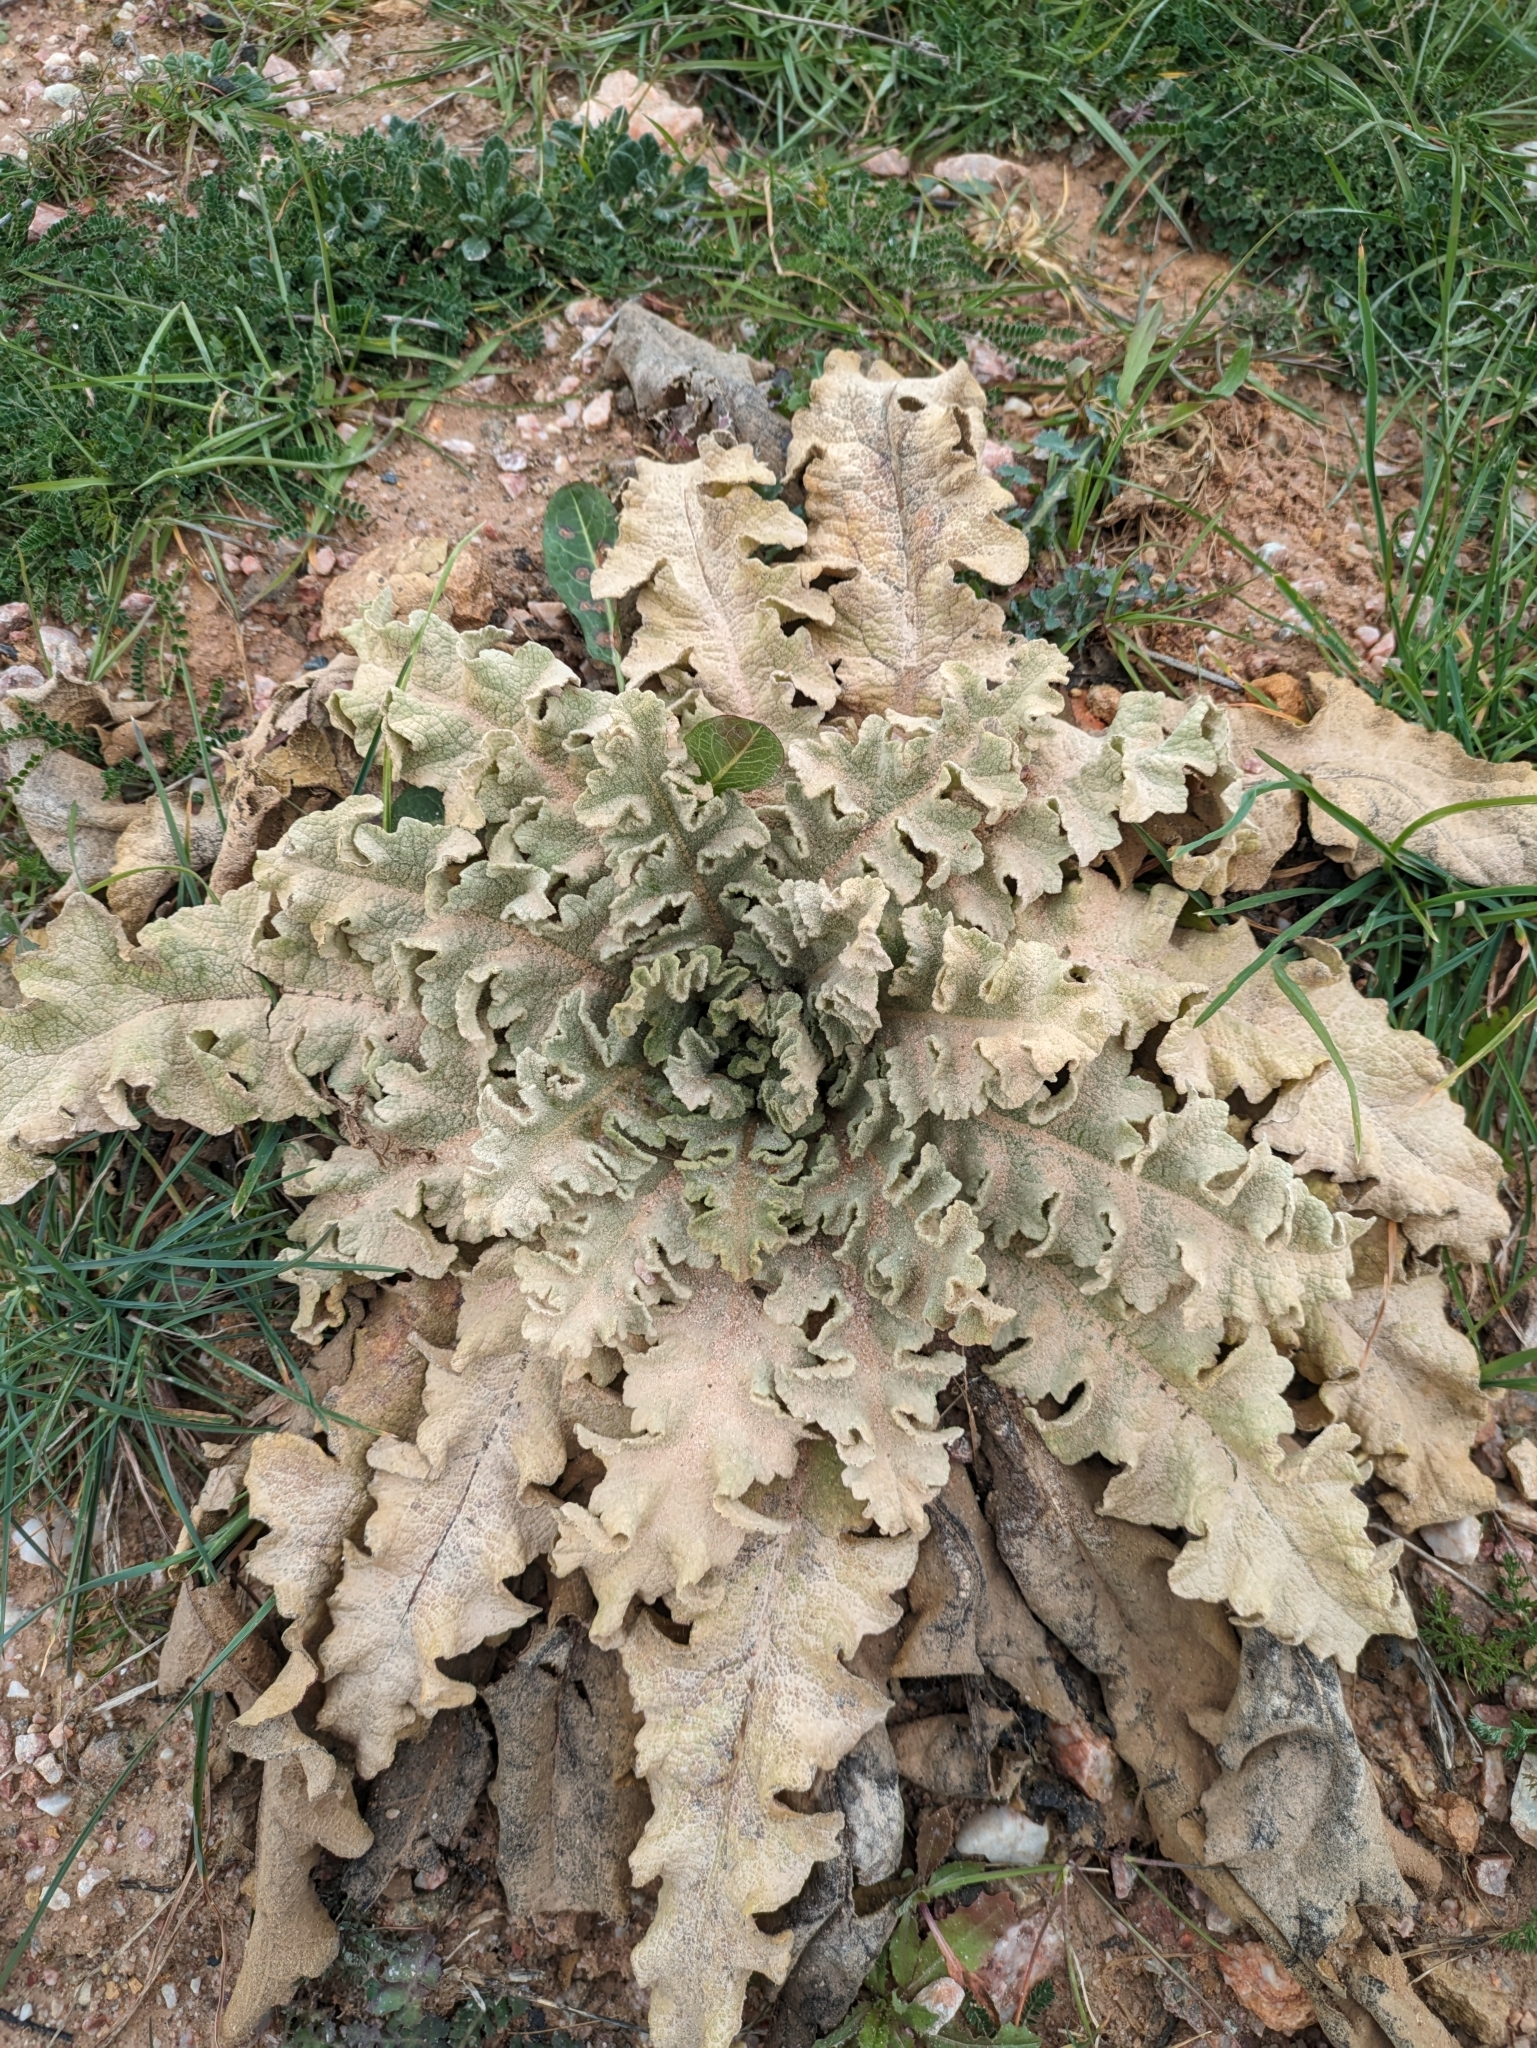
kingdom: Plantae
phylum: Tracheophyta
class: Magnoliopsida
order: Lamiales
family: Scrophulariaceae
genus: Verbascum
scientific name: Verbascum sinuatum
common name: Wavyleaf mullein
